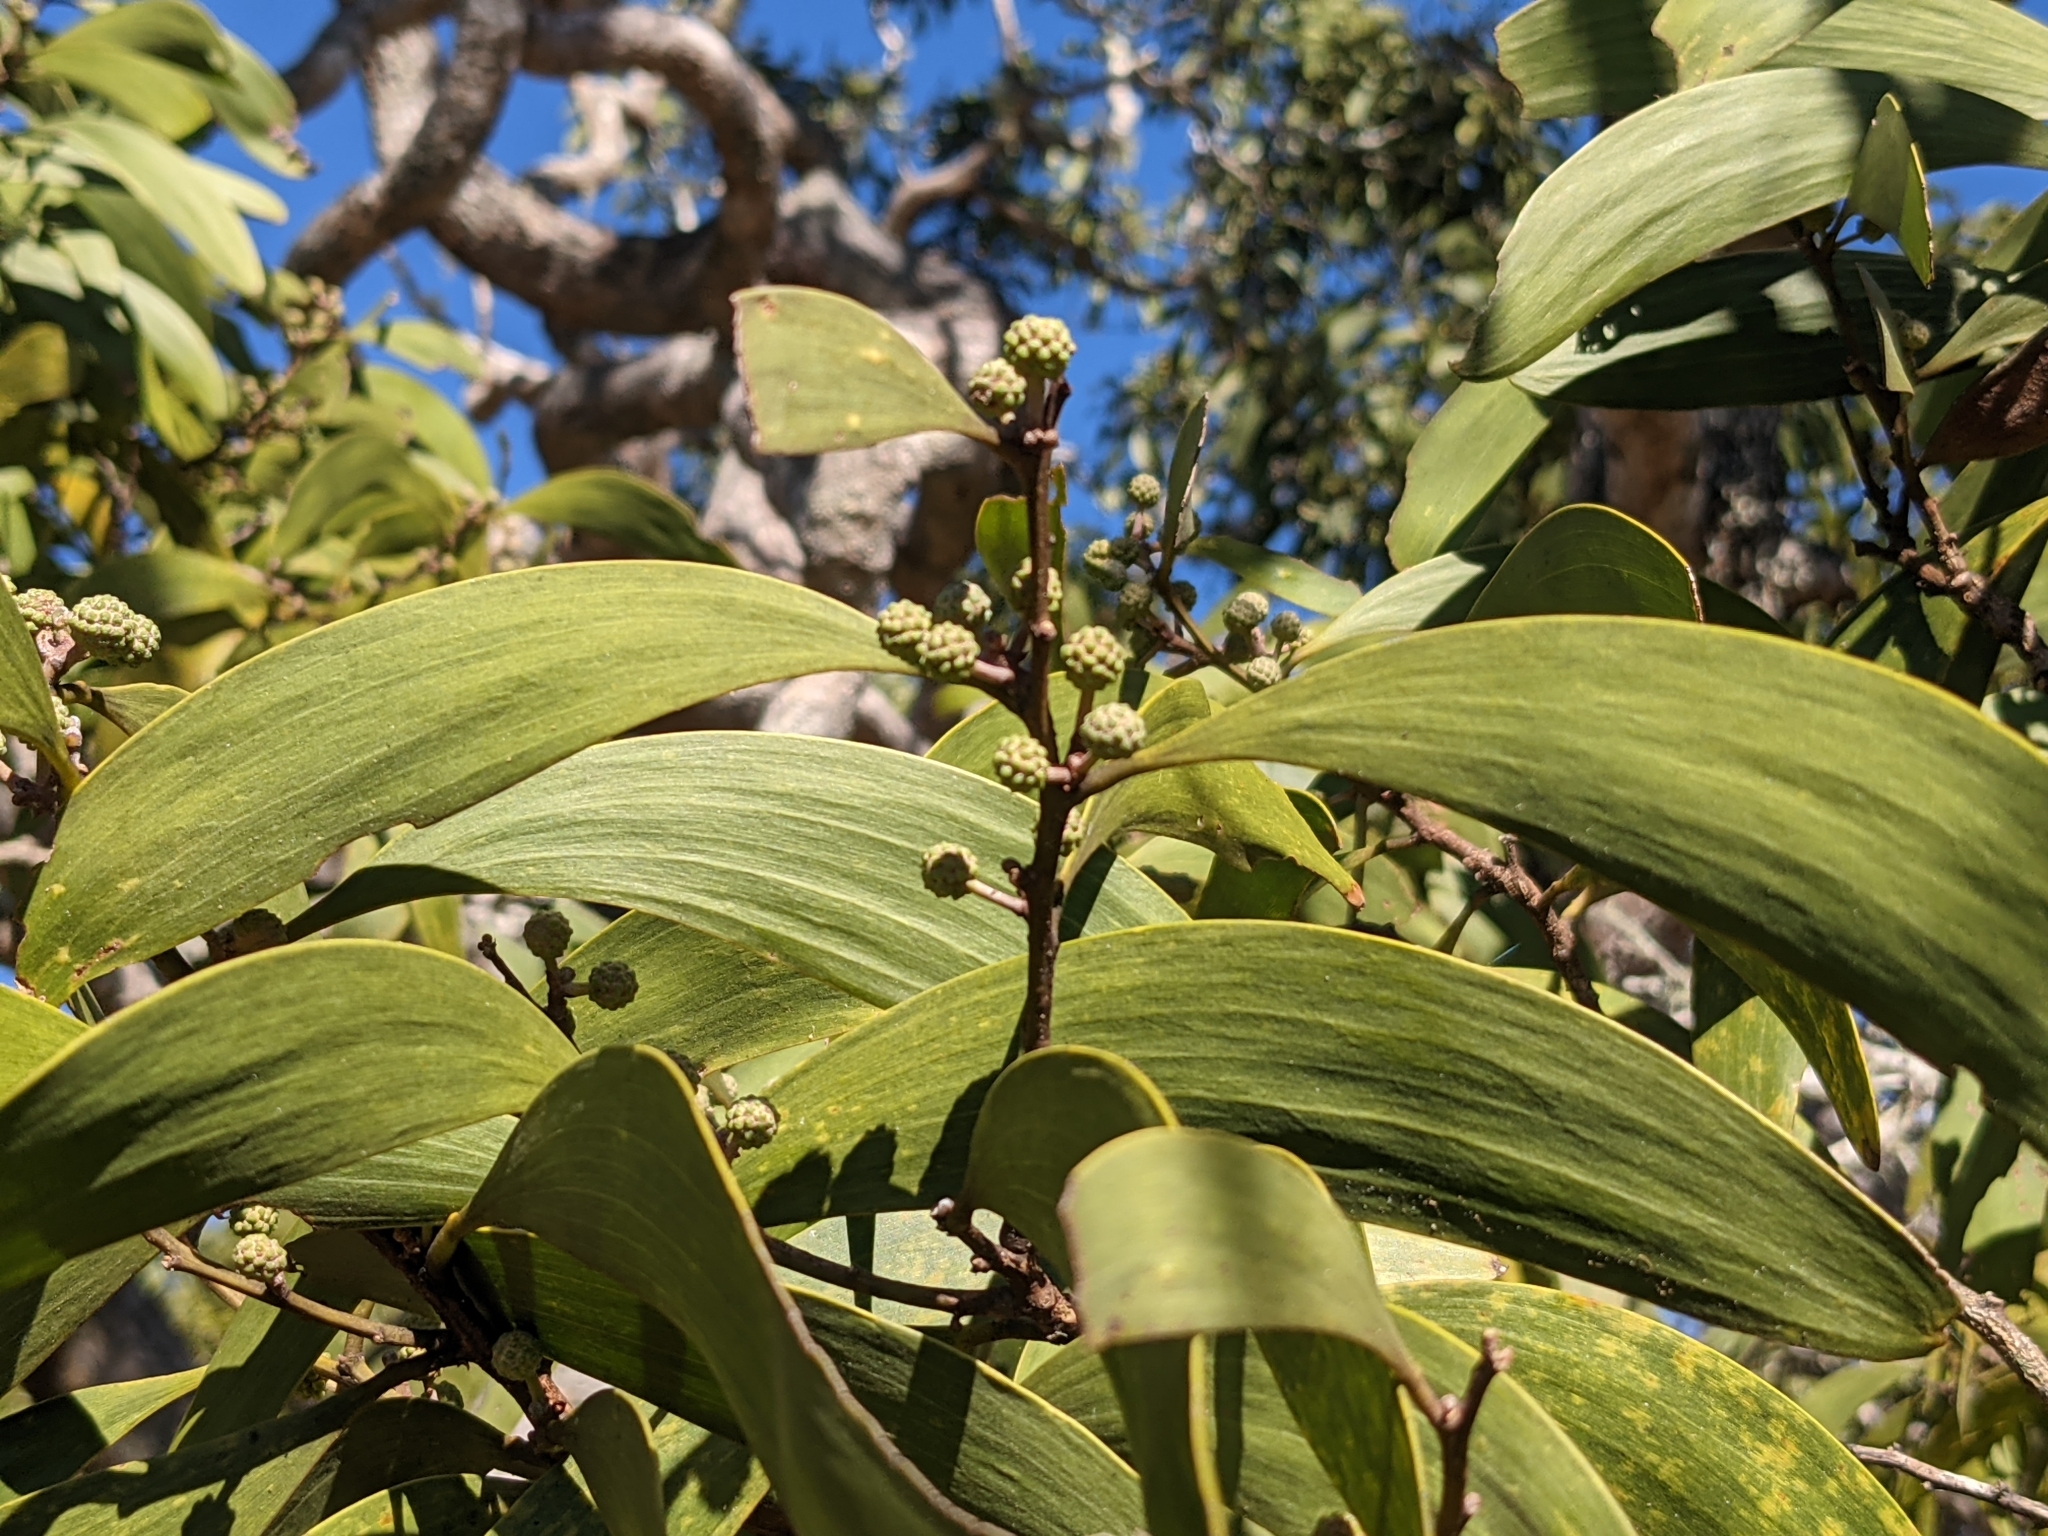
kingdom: Plantae
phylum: Tracheophyta
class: Magnoliopsida
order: Fabales
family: Fabaceae
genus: Acacia
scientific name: Acacia koa
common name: Gray koa
